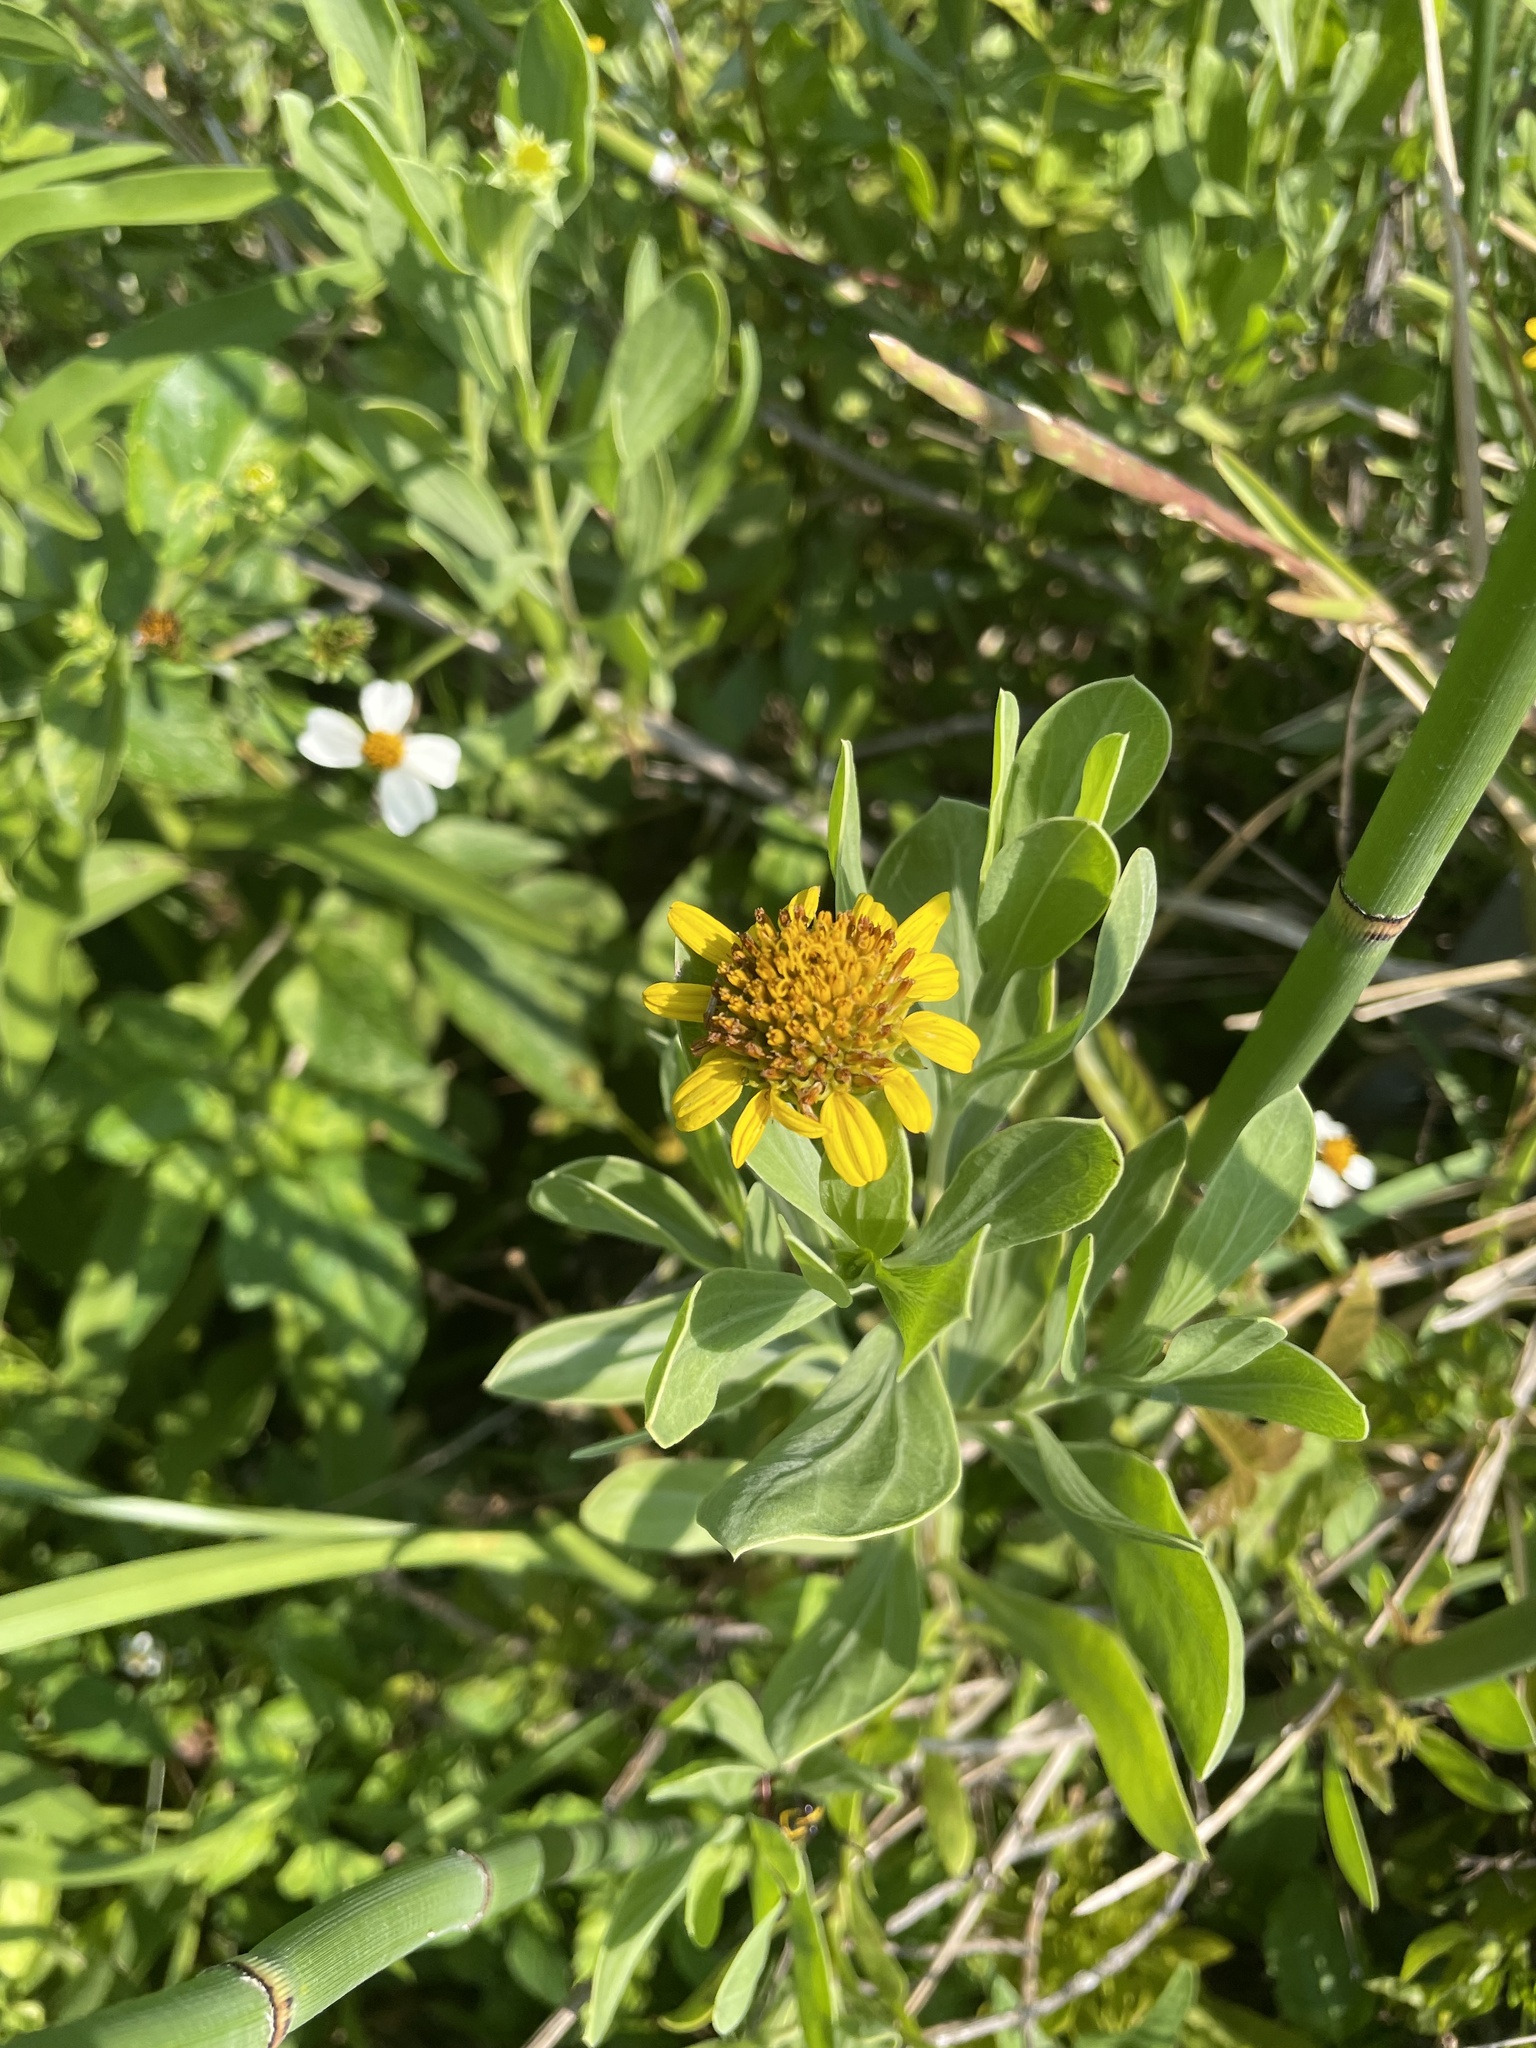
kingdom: Plantae
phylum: Tracheophyta
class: Magnoliopsida
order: Asterales
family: Asteraceae
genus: Borrichia
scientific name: Borrichia frutescens
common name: Sea oxeye
